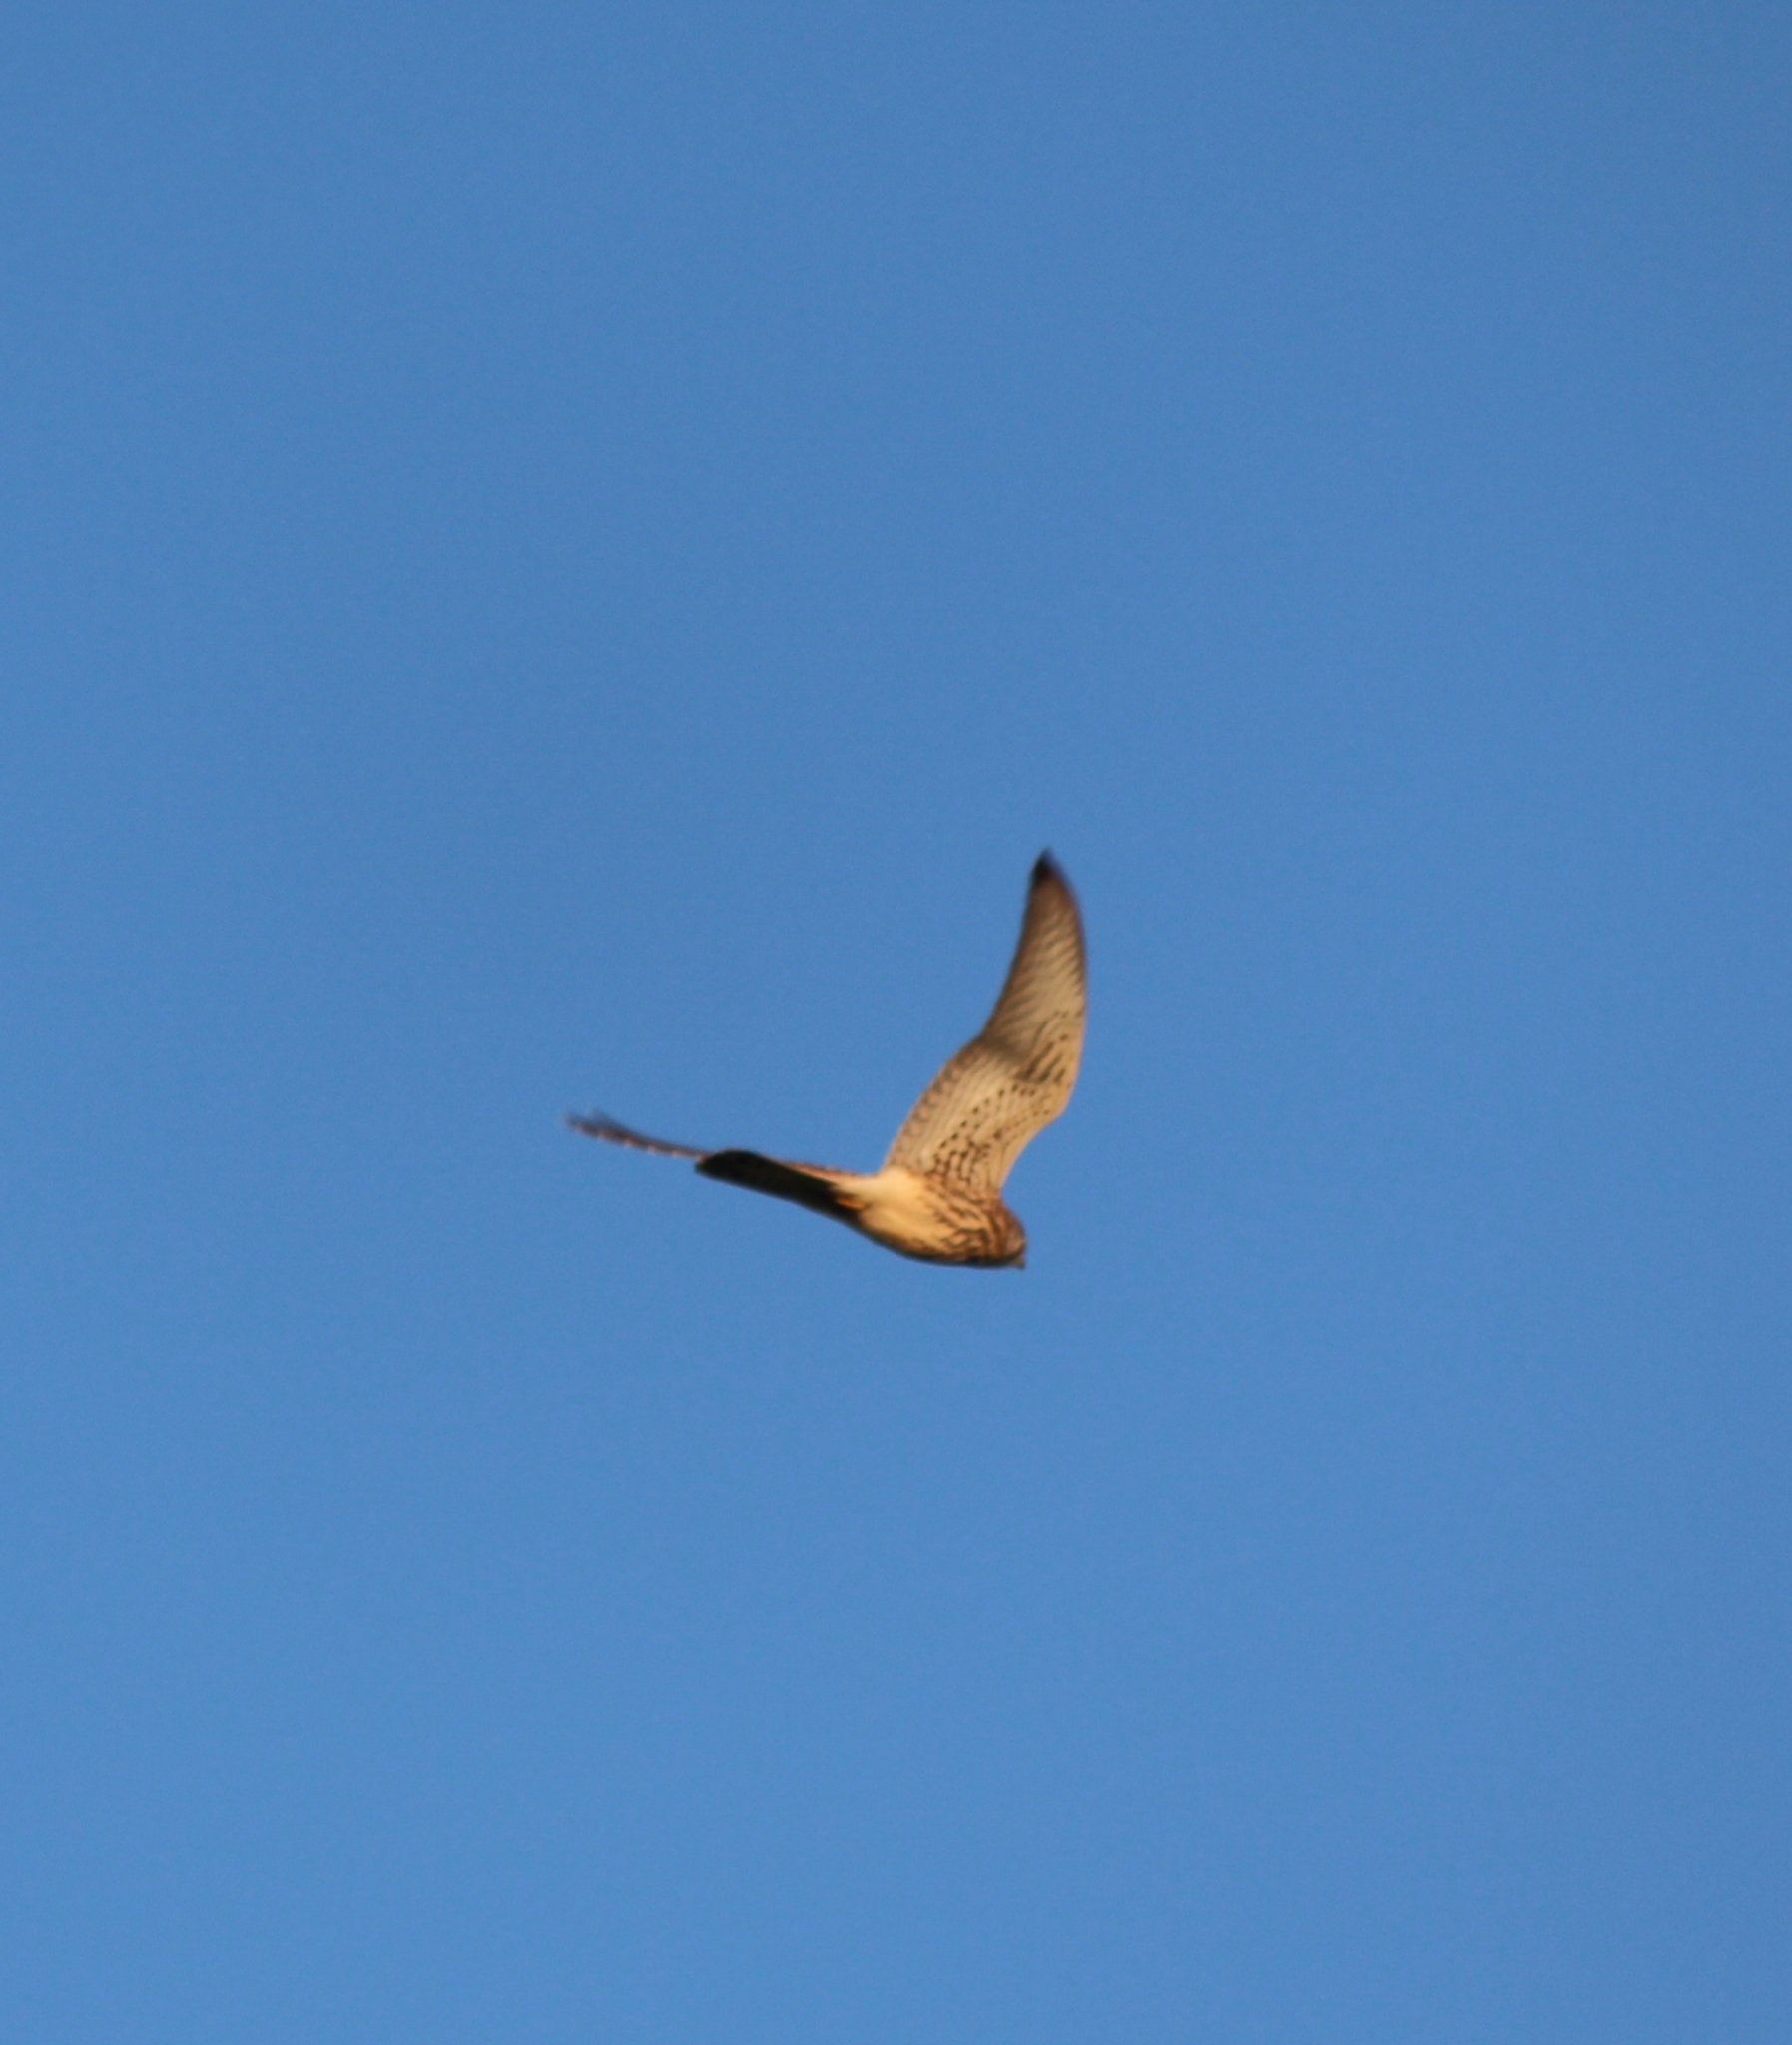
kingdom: Animalia
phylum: Chordata
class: Aves
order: Falconiformes
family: Falconidae
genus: Falco
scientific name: Falco tinnunculus
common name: Common kestrel
